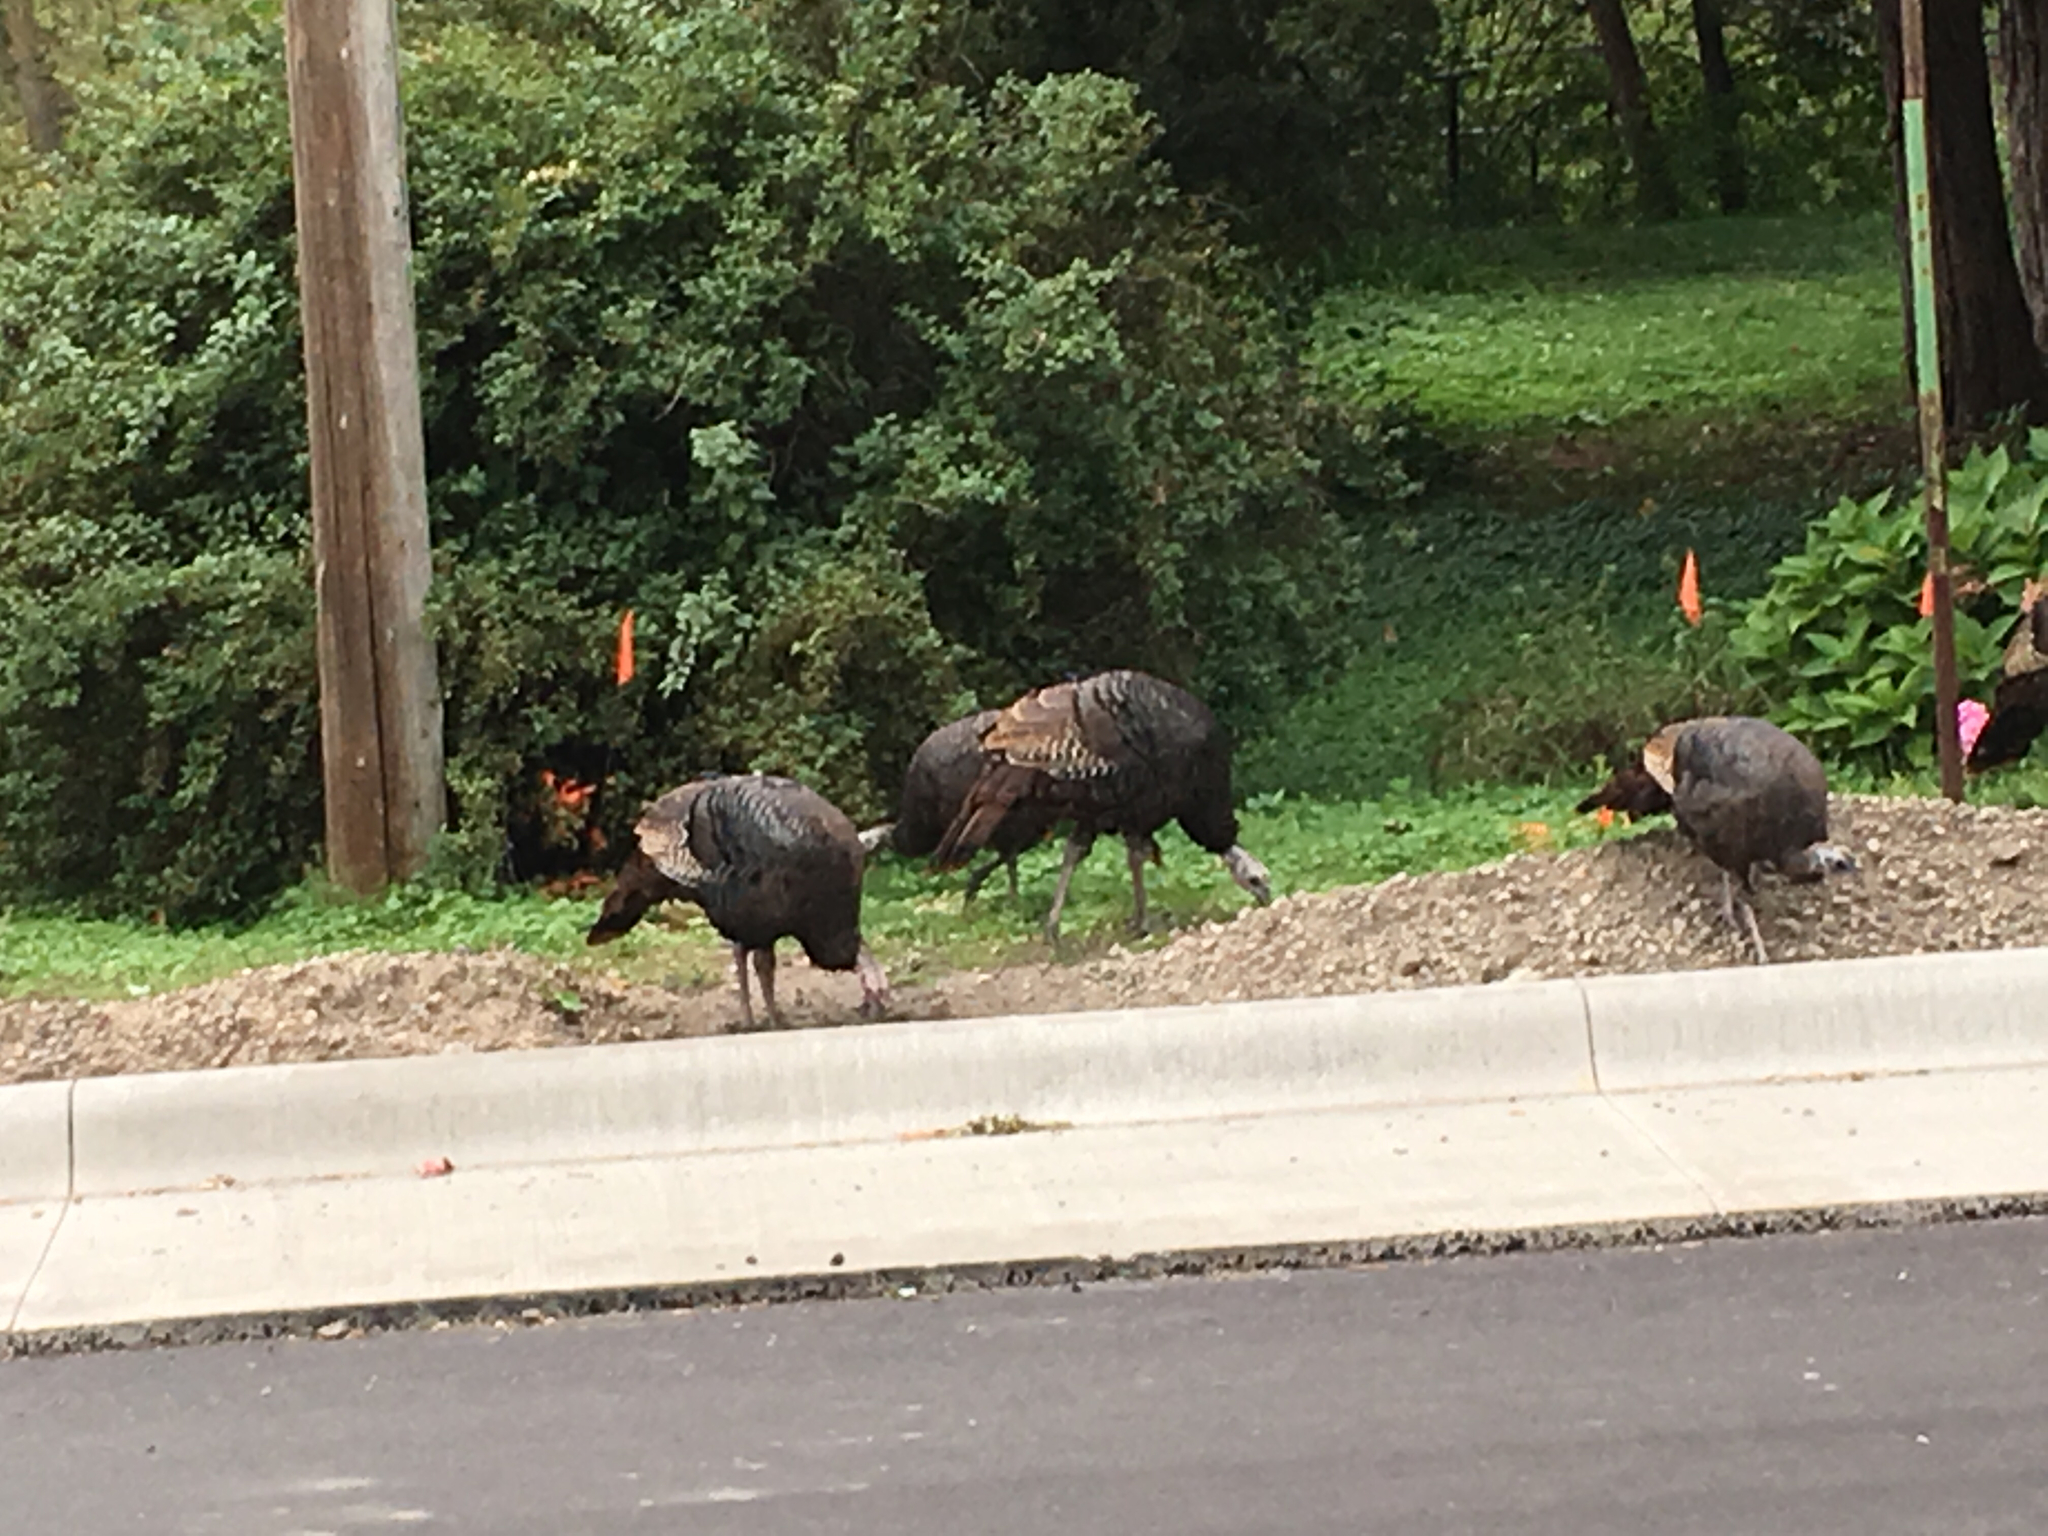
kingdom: Animalia
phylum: Chordata
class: Aves
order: Galliformes
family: Phasianidae
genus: Meleagris
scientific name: Meleagris gallopavo
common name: Wild turkey
